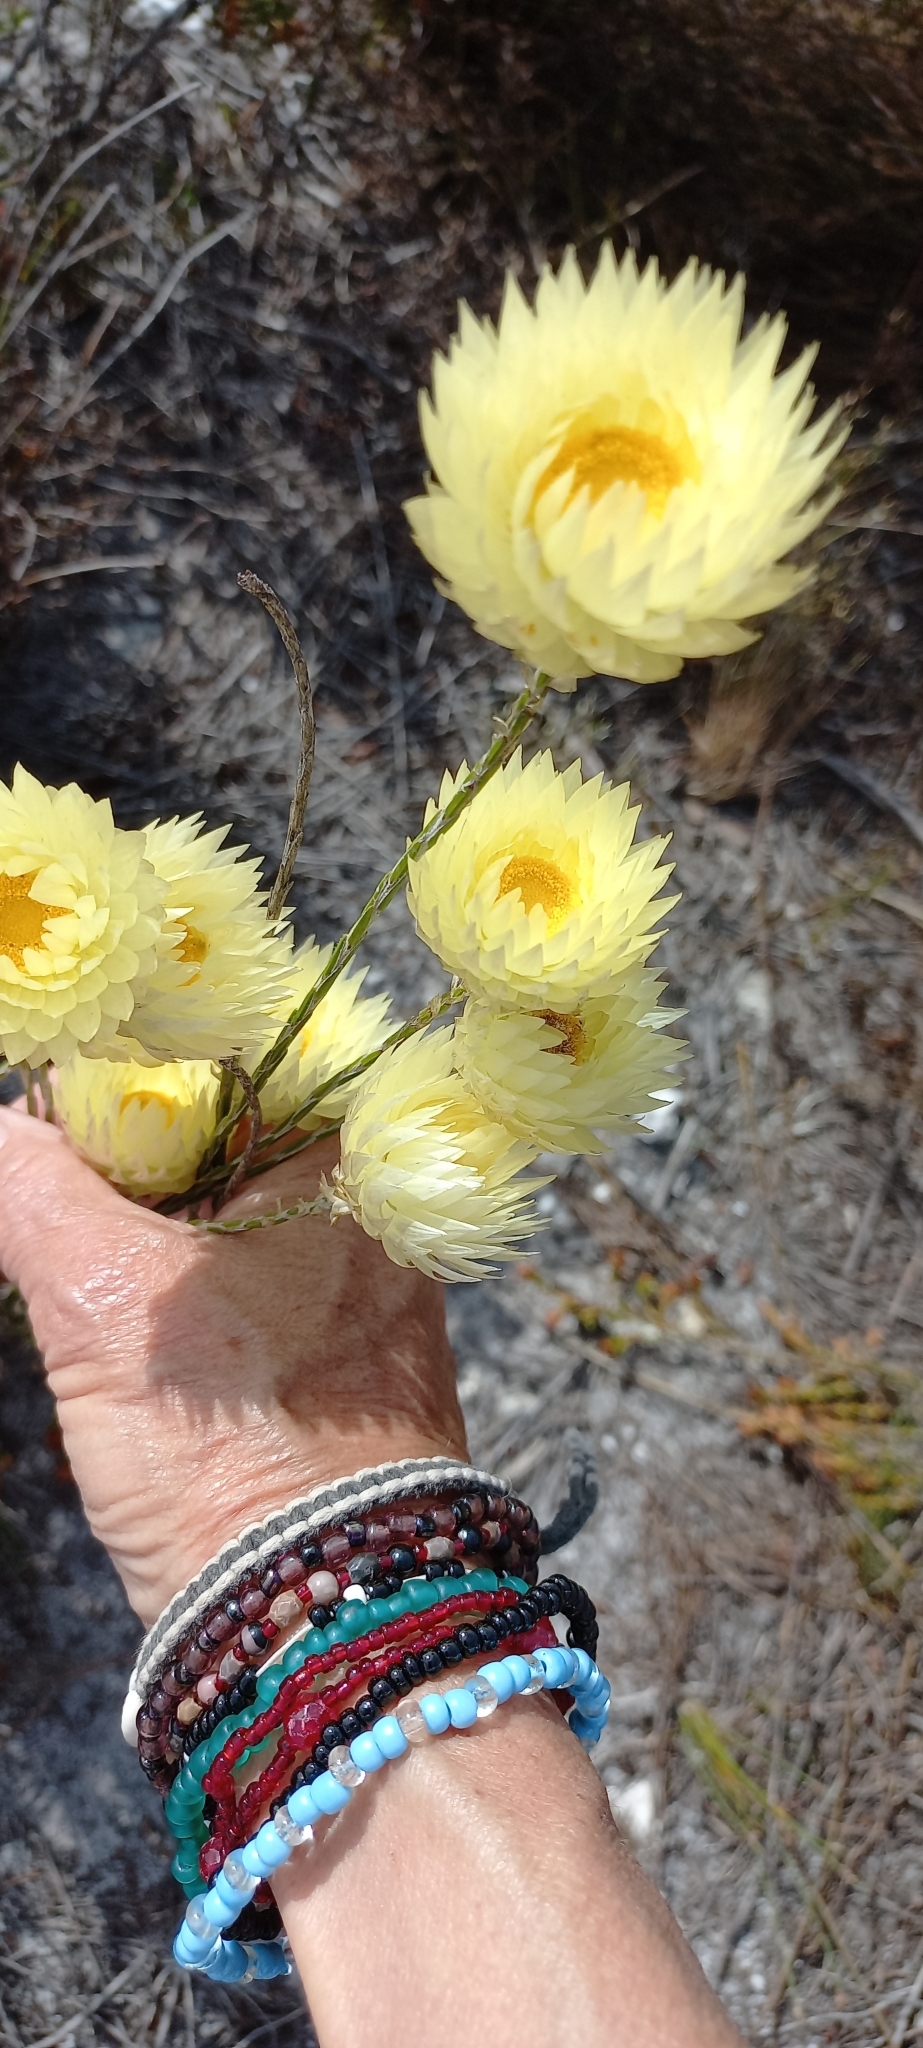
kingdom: Plantae
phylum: Tracheophyta
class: Magnoliopsida
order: Asterales
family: Asteraceae
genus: Edmondia
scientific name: Edmondia sesamoides
